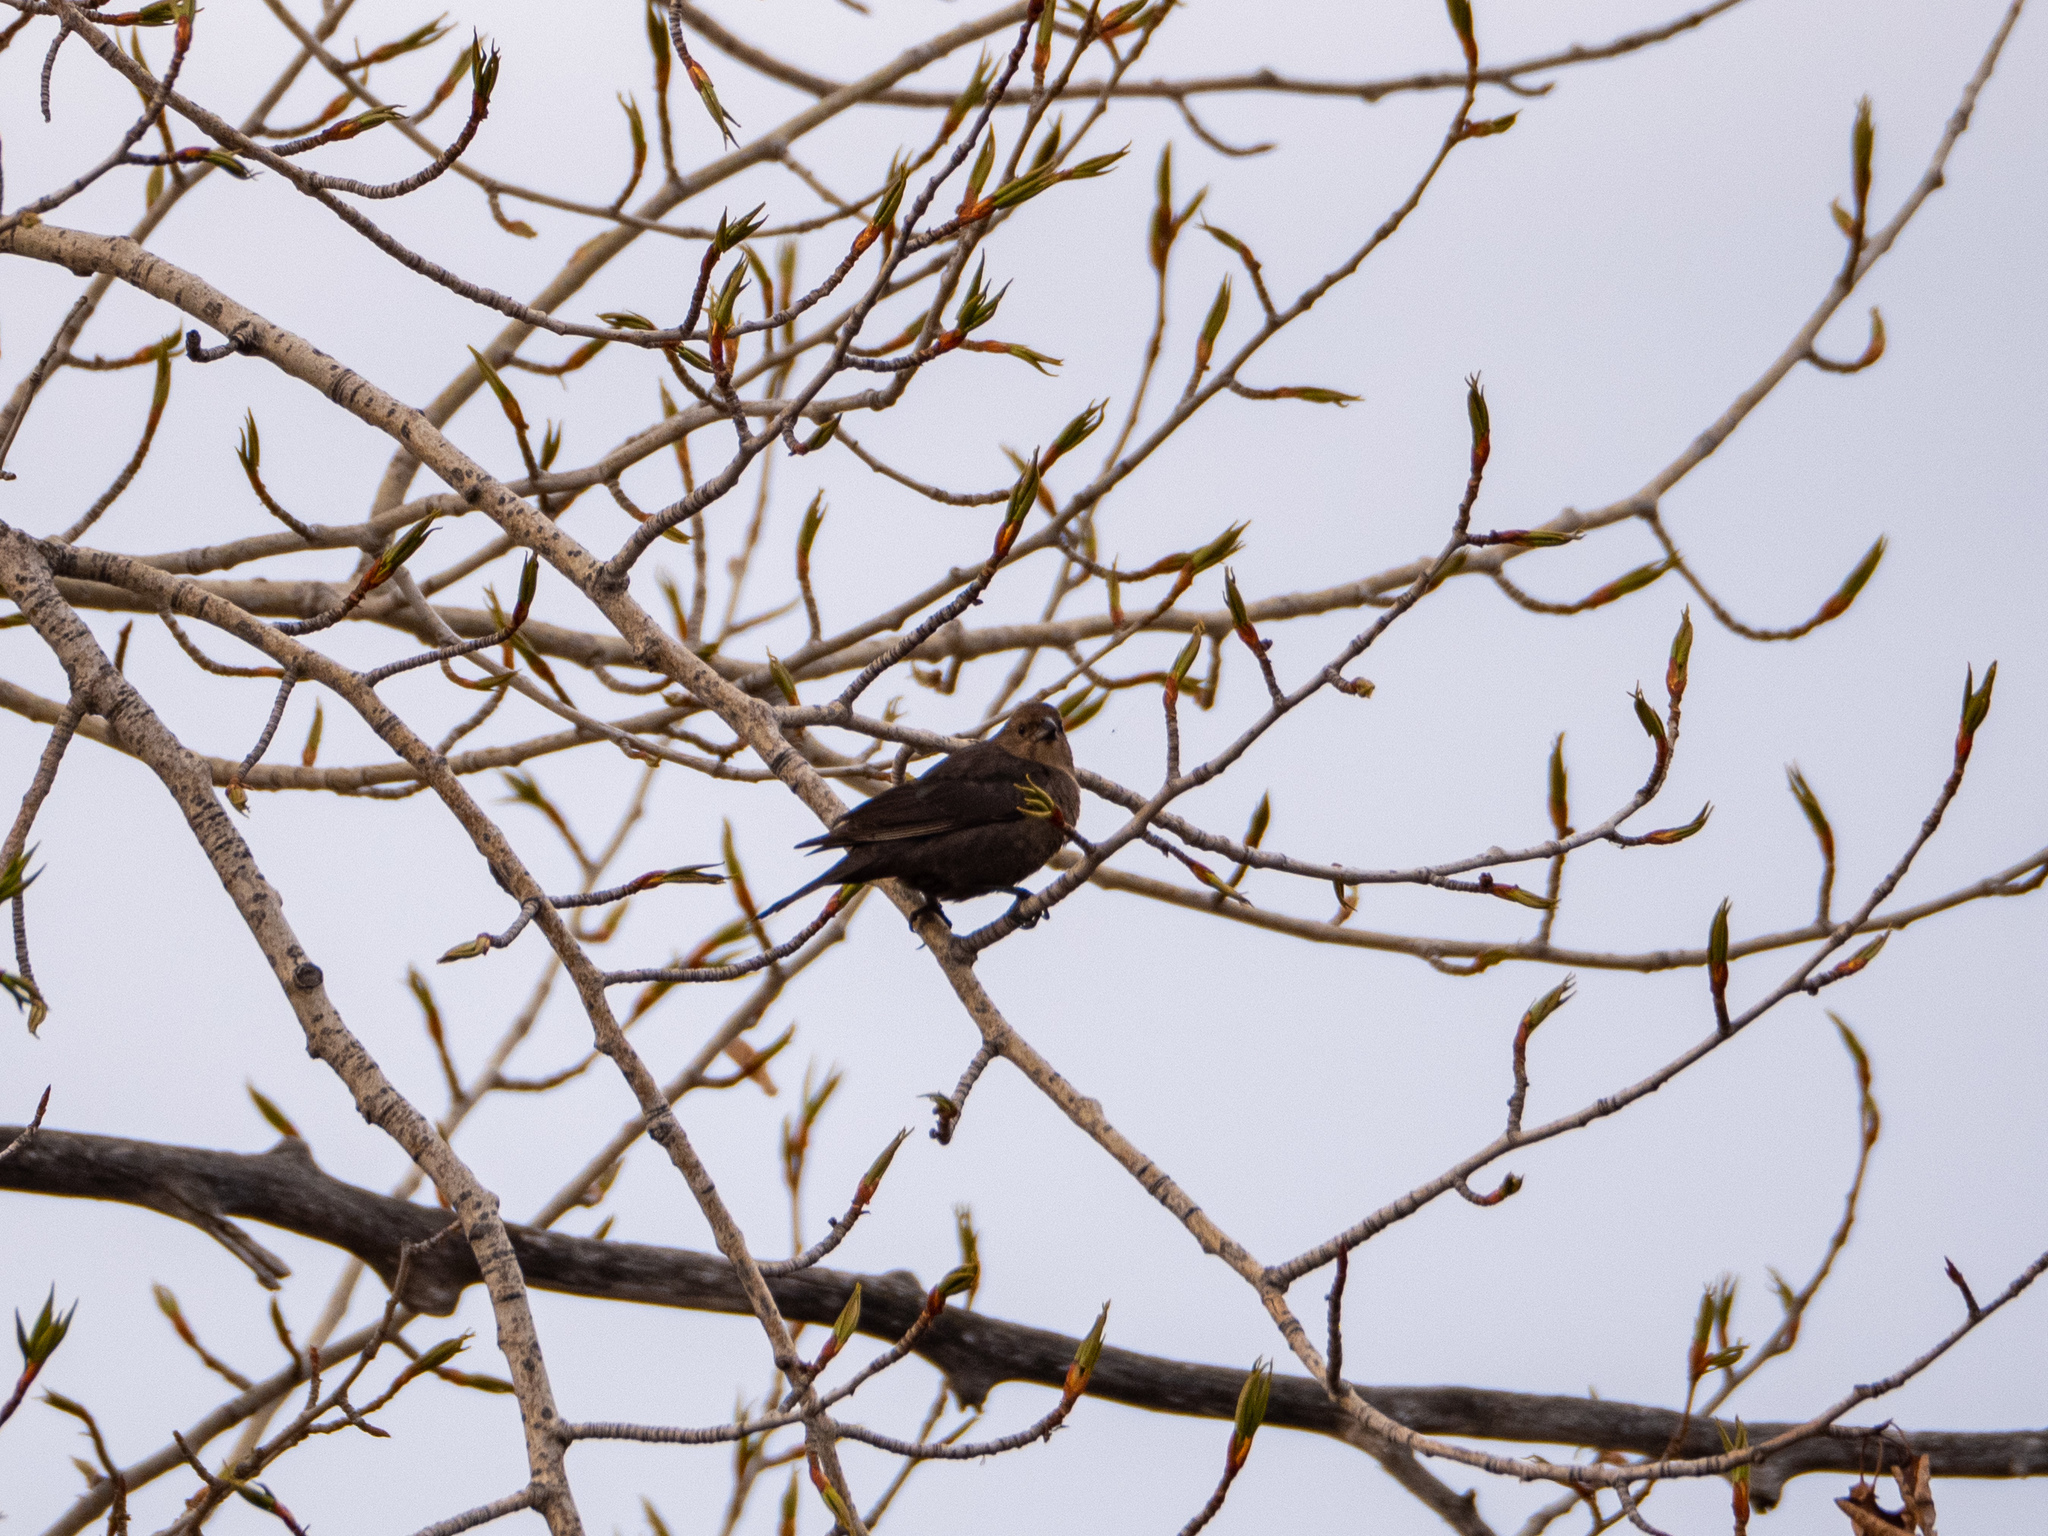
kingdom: Animalia
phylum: Chordata
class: Aves
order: Passeriformes
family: Icteridae
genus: Molothrus
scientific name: Molothrus ater
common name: Brown-headed cowbird
